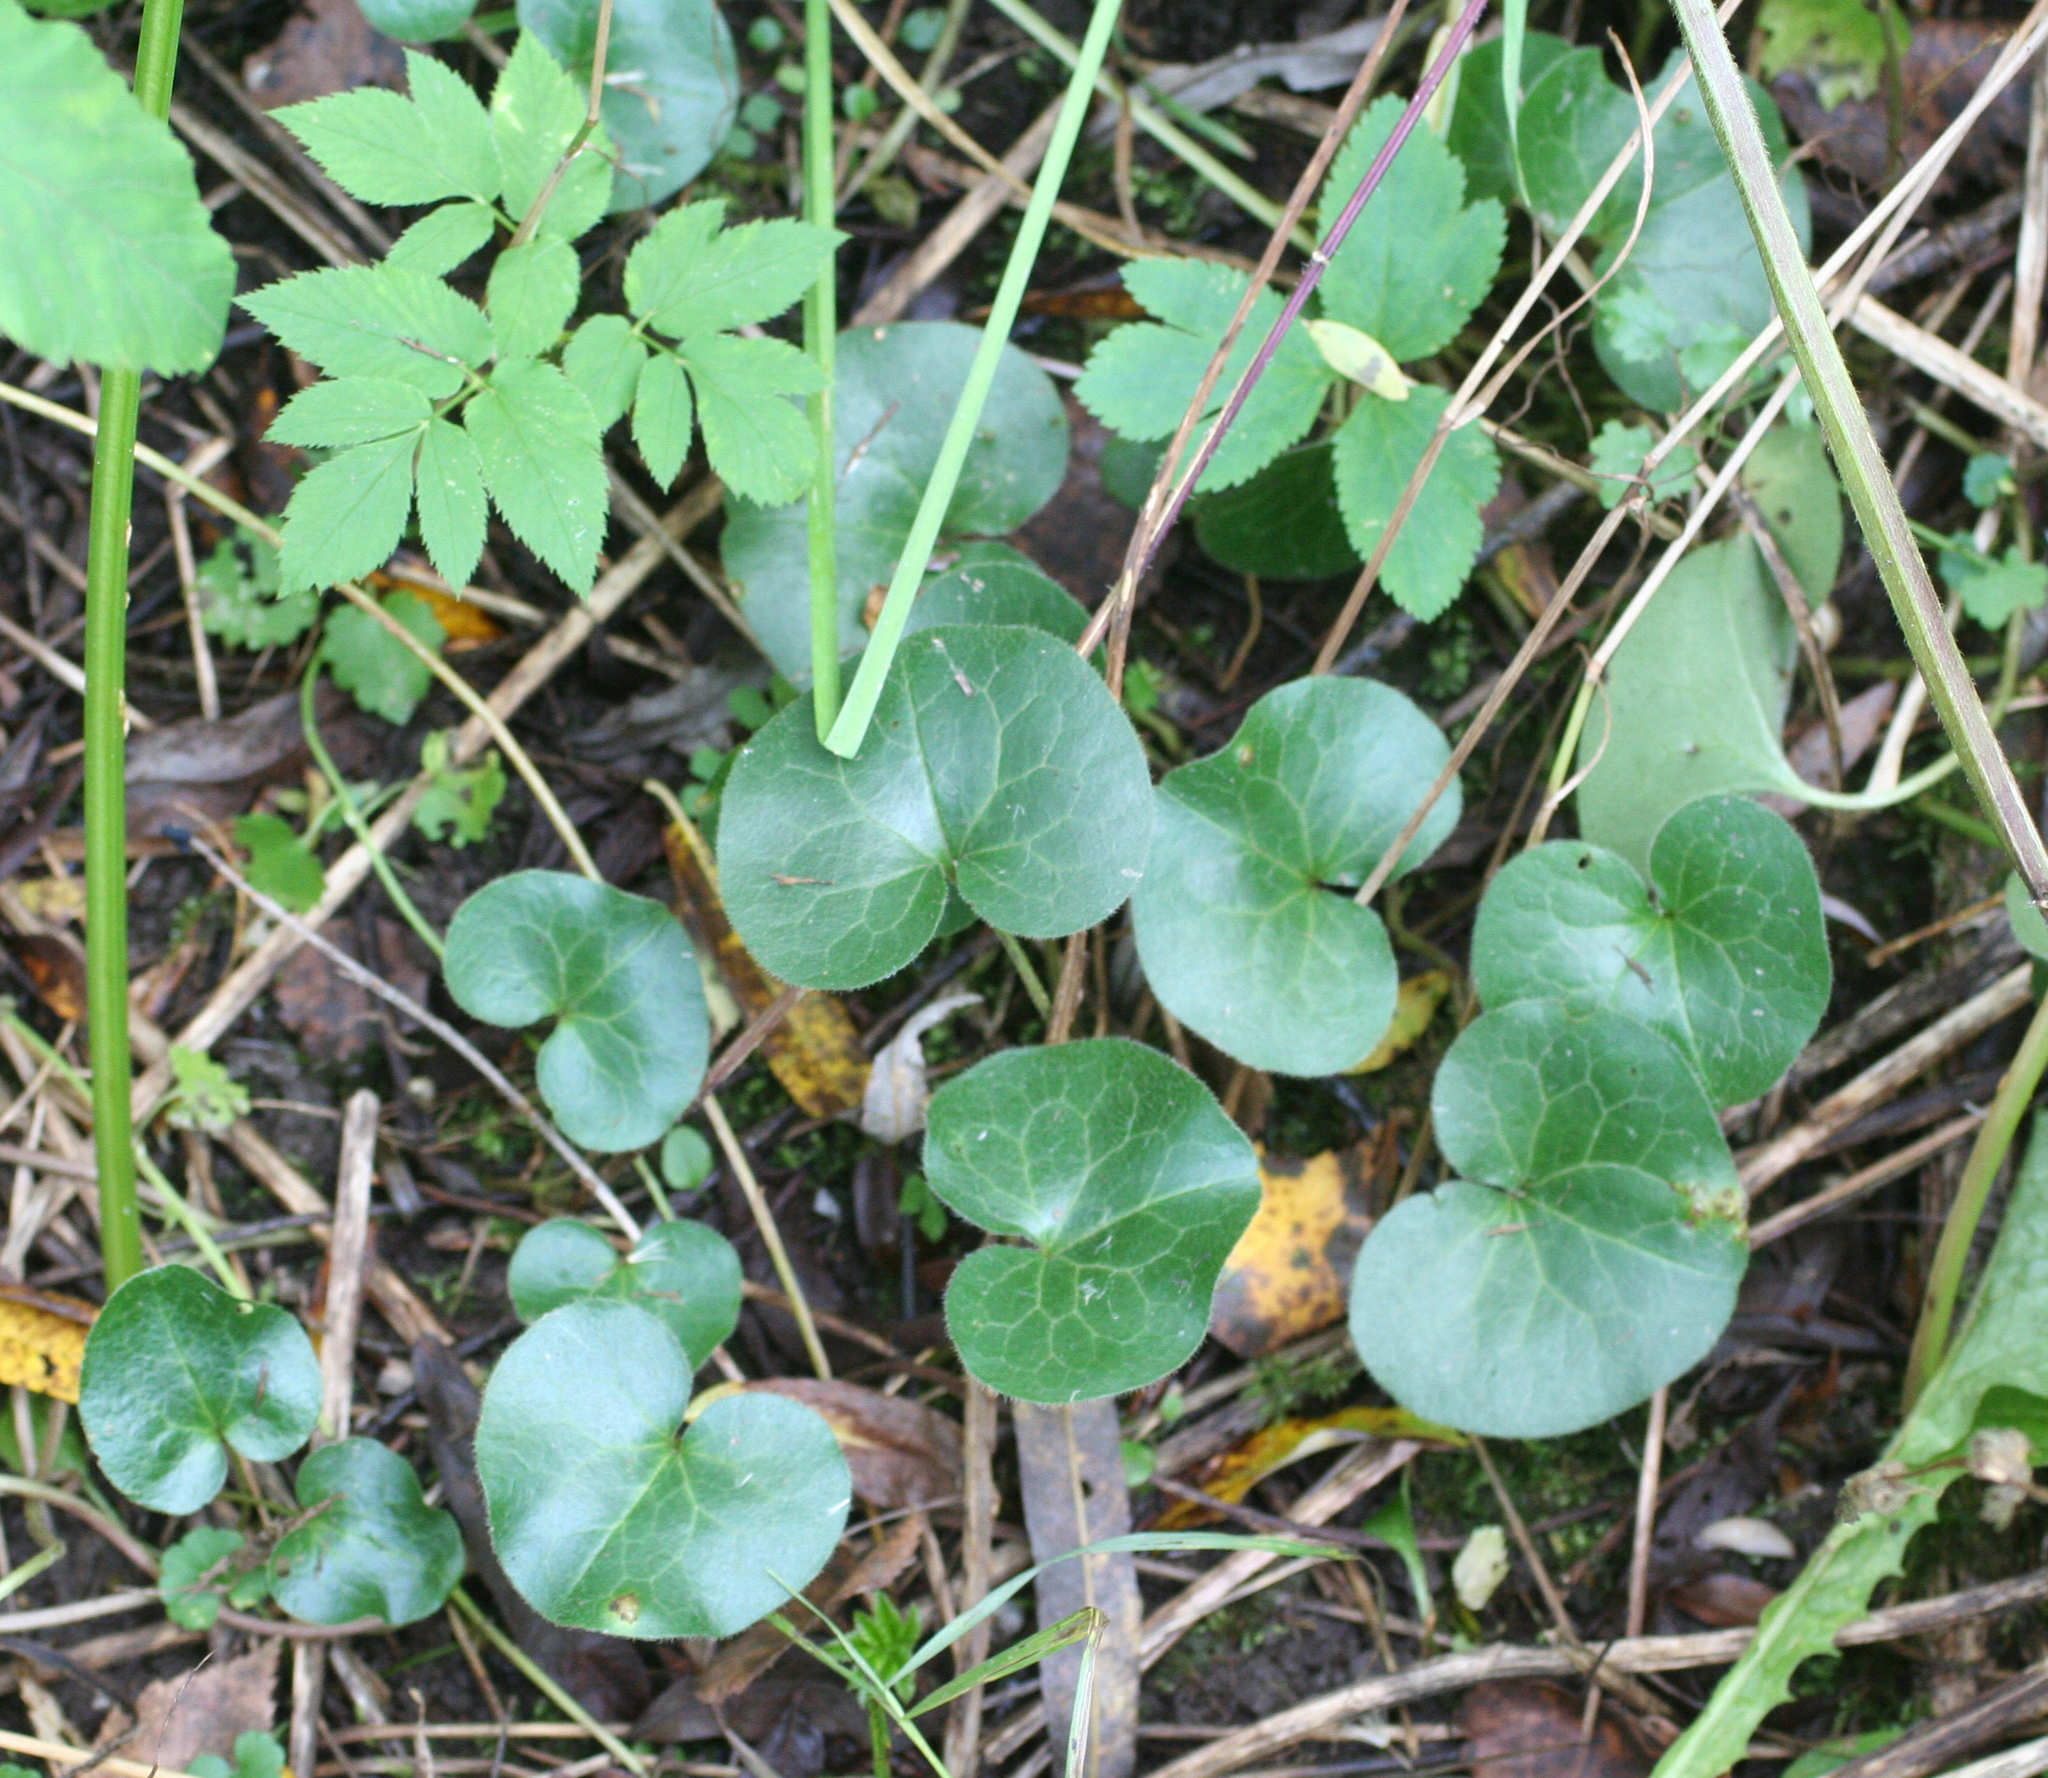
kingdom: Plantae
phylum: Tracheophyta
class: Magnoliopsida
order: Piperales
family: Aristolochiaceae
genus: Asarum
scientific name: Asarum europaeum
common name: Asarabacca
